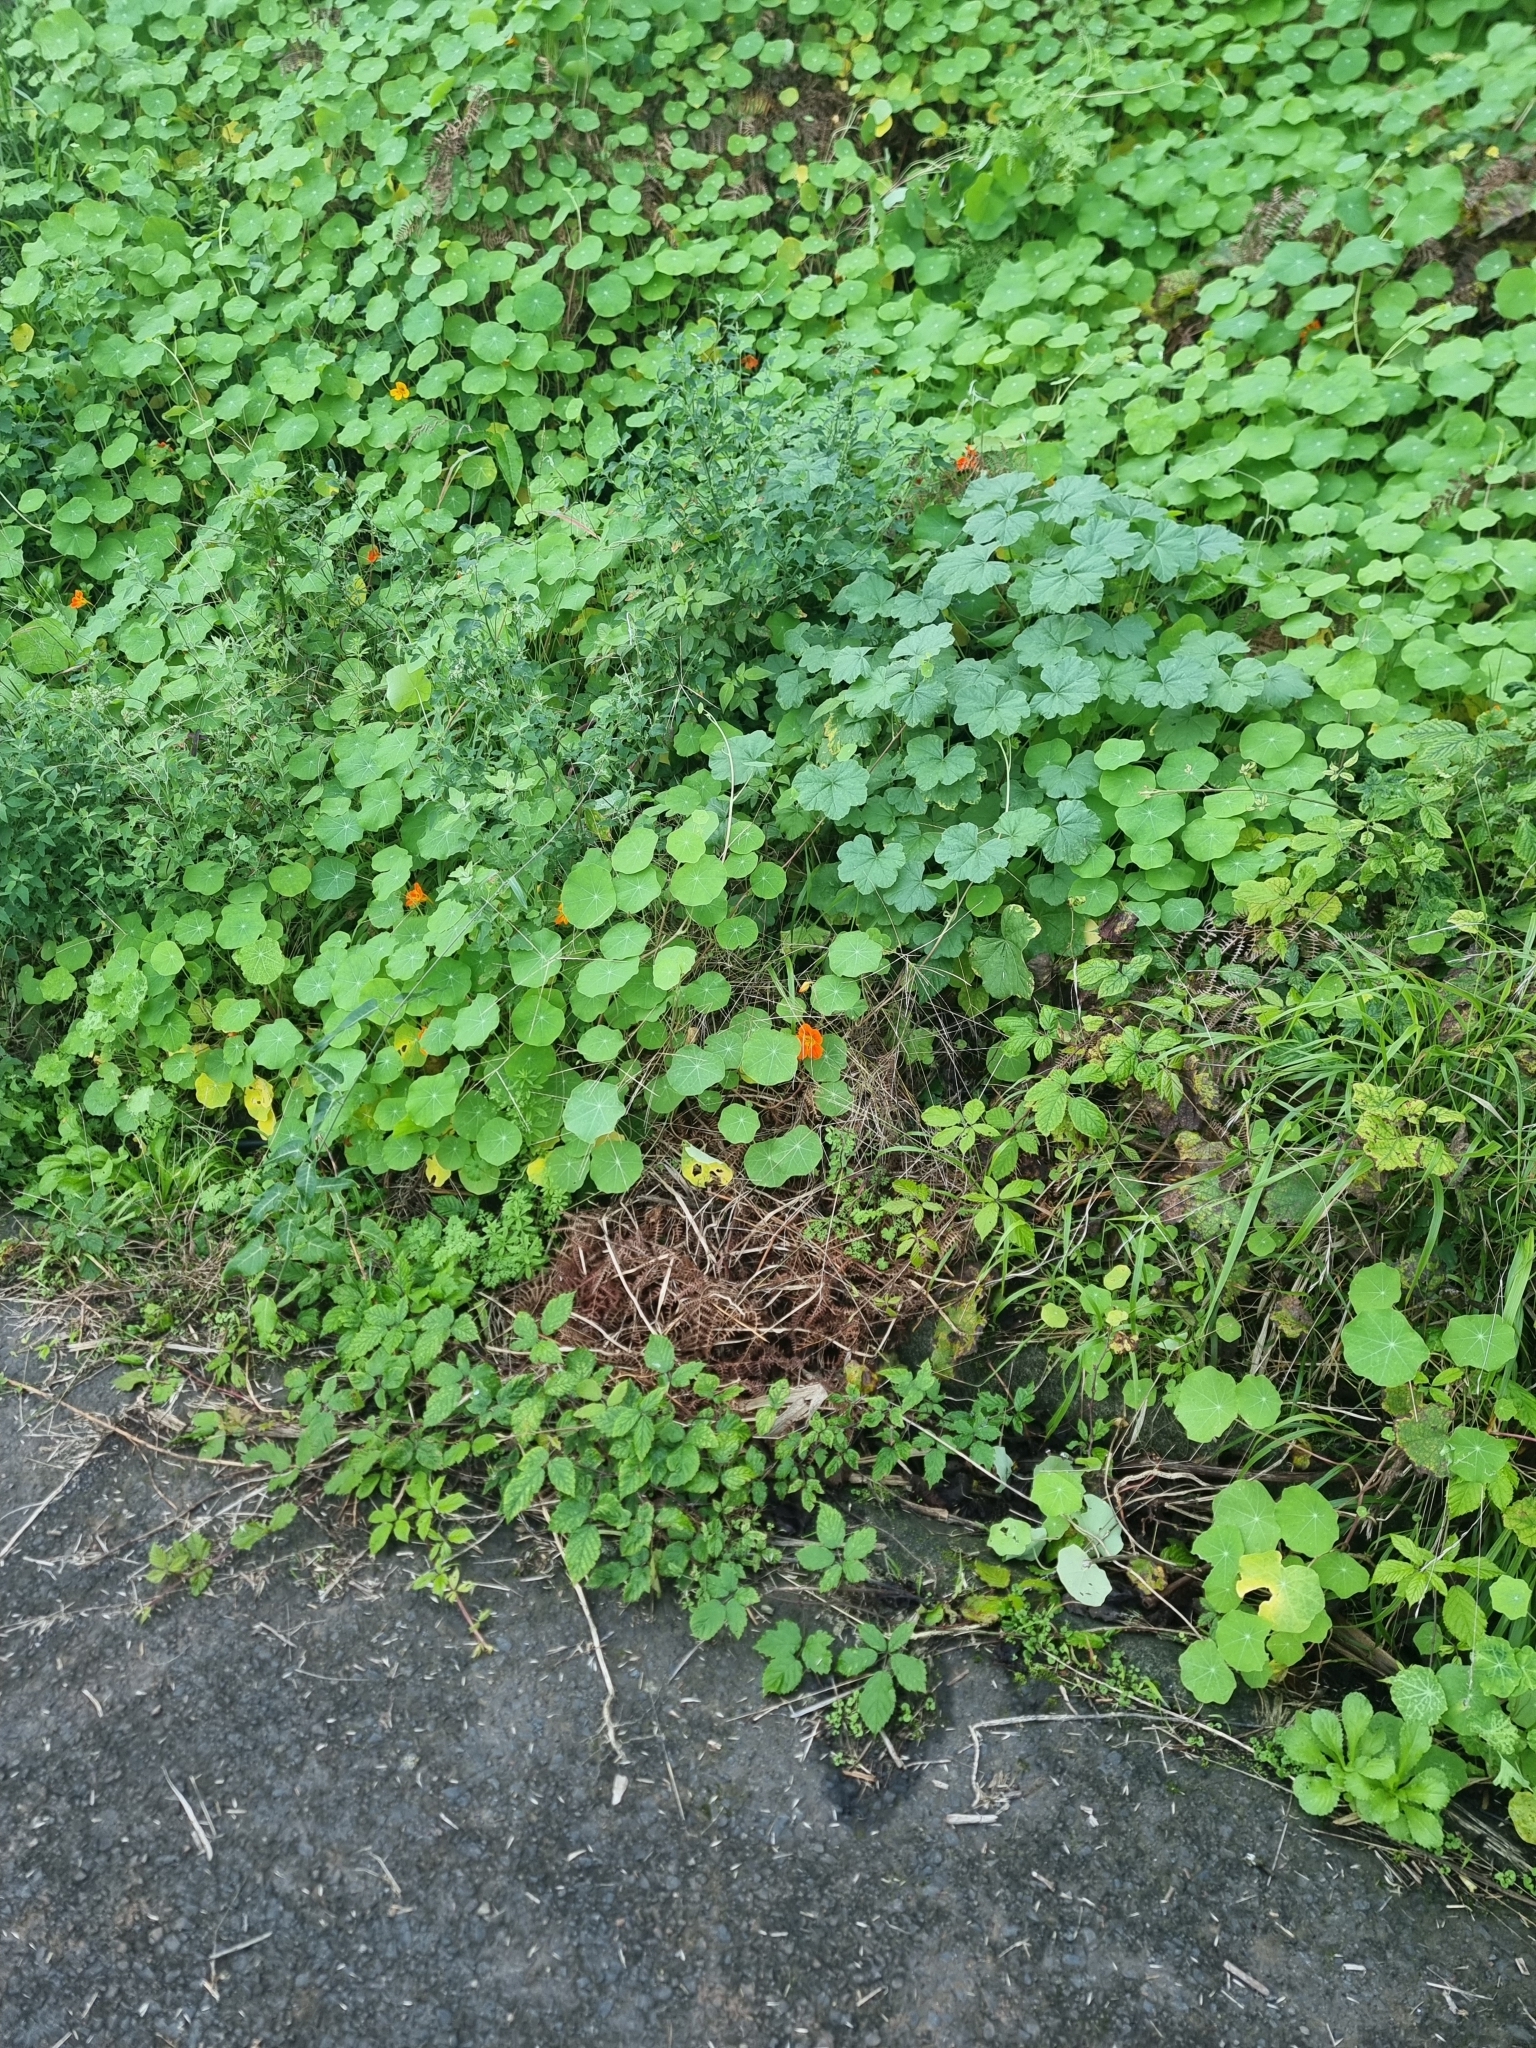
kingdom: Plantae
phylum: Tracheophyta
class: Magnoliopsida
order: Brassicales
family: Tropaeolaceae
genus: Tropaeolum
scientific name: Tropaeolum majus
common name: Nasturtium
